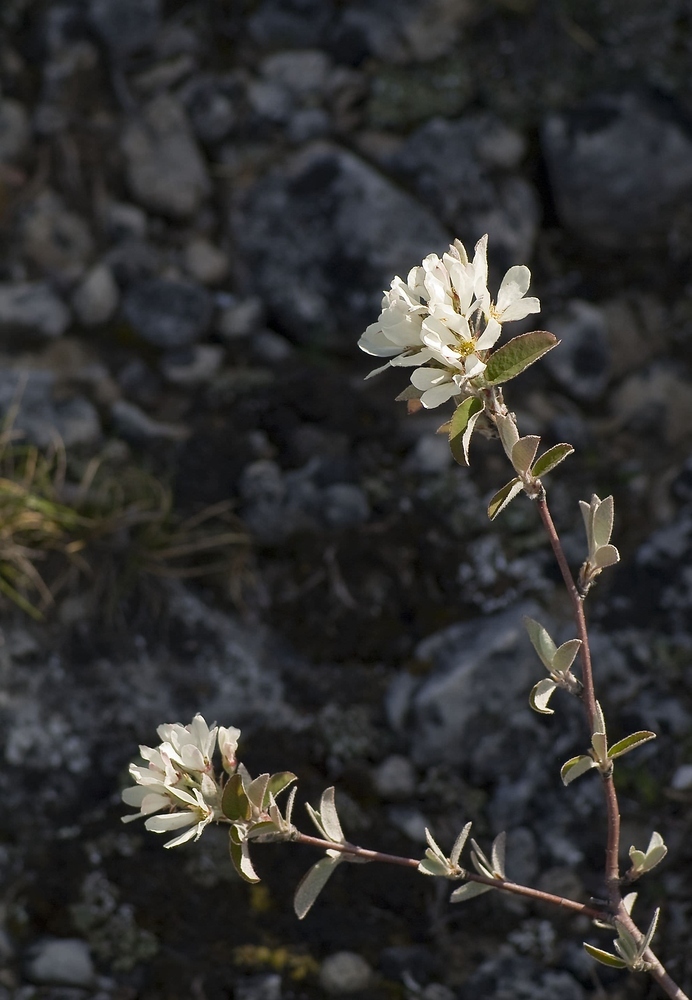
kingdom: Plantae
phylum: Tracheophyta
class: Magnoliopsida
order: Rosales
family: Rosaceae
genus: Amelanchier
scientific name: Amelanchier ovalis
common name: Serviceberry
